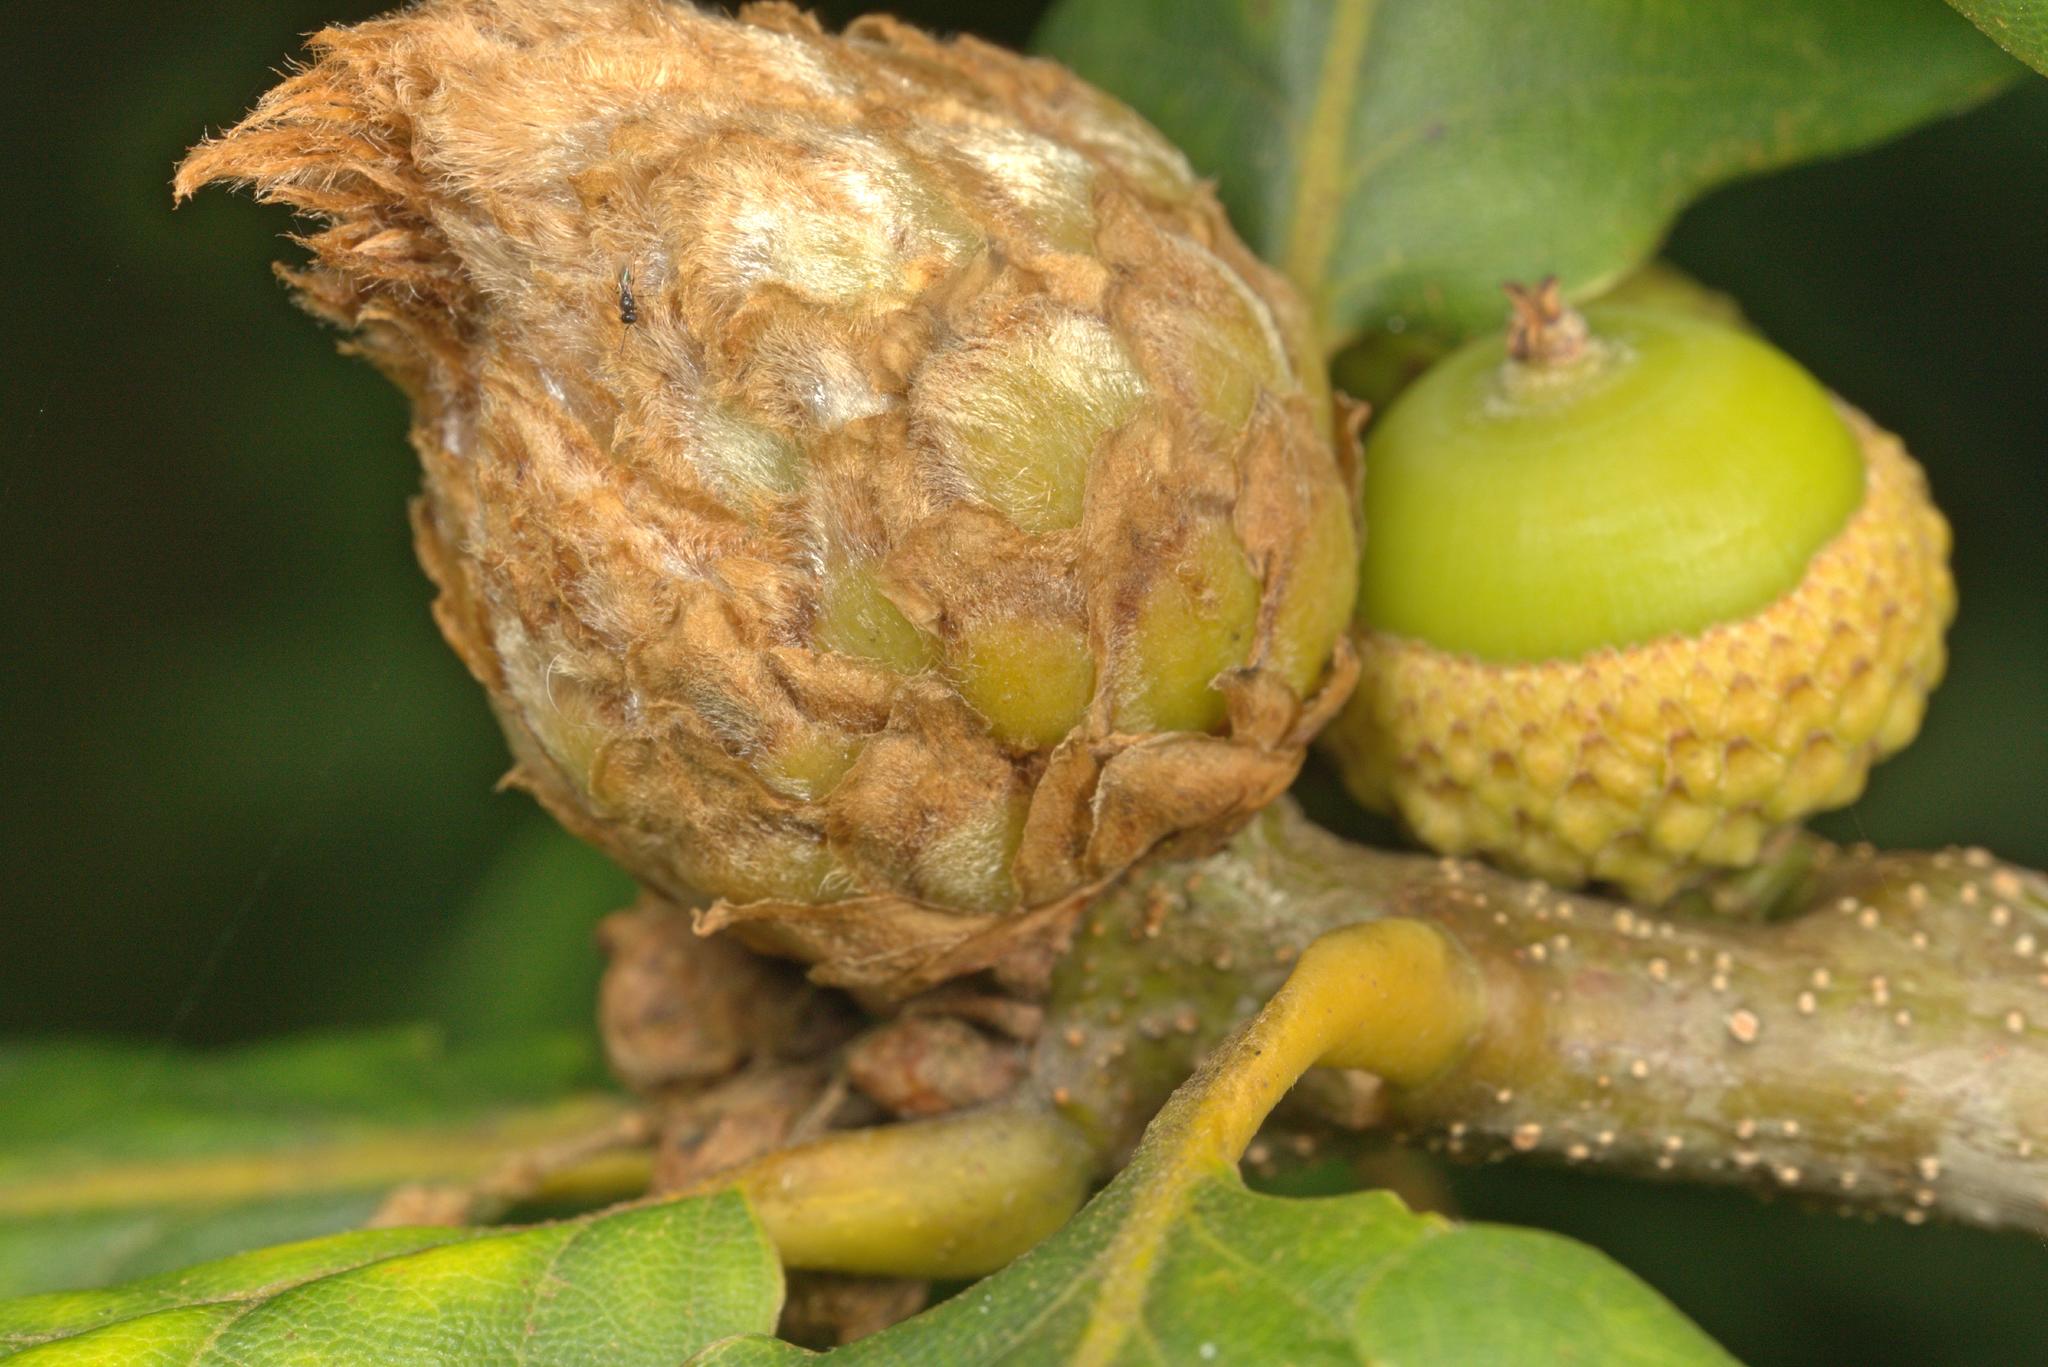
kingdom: Animalia
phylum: Arthropoda
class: Insecta
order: Hymenoptera
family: Cynipidae
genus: Andricus
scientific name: Andricus foecundatrix
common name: Artichoke gall
